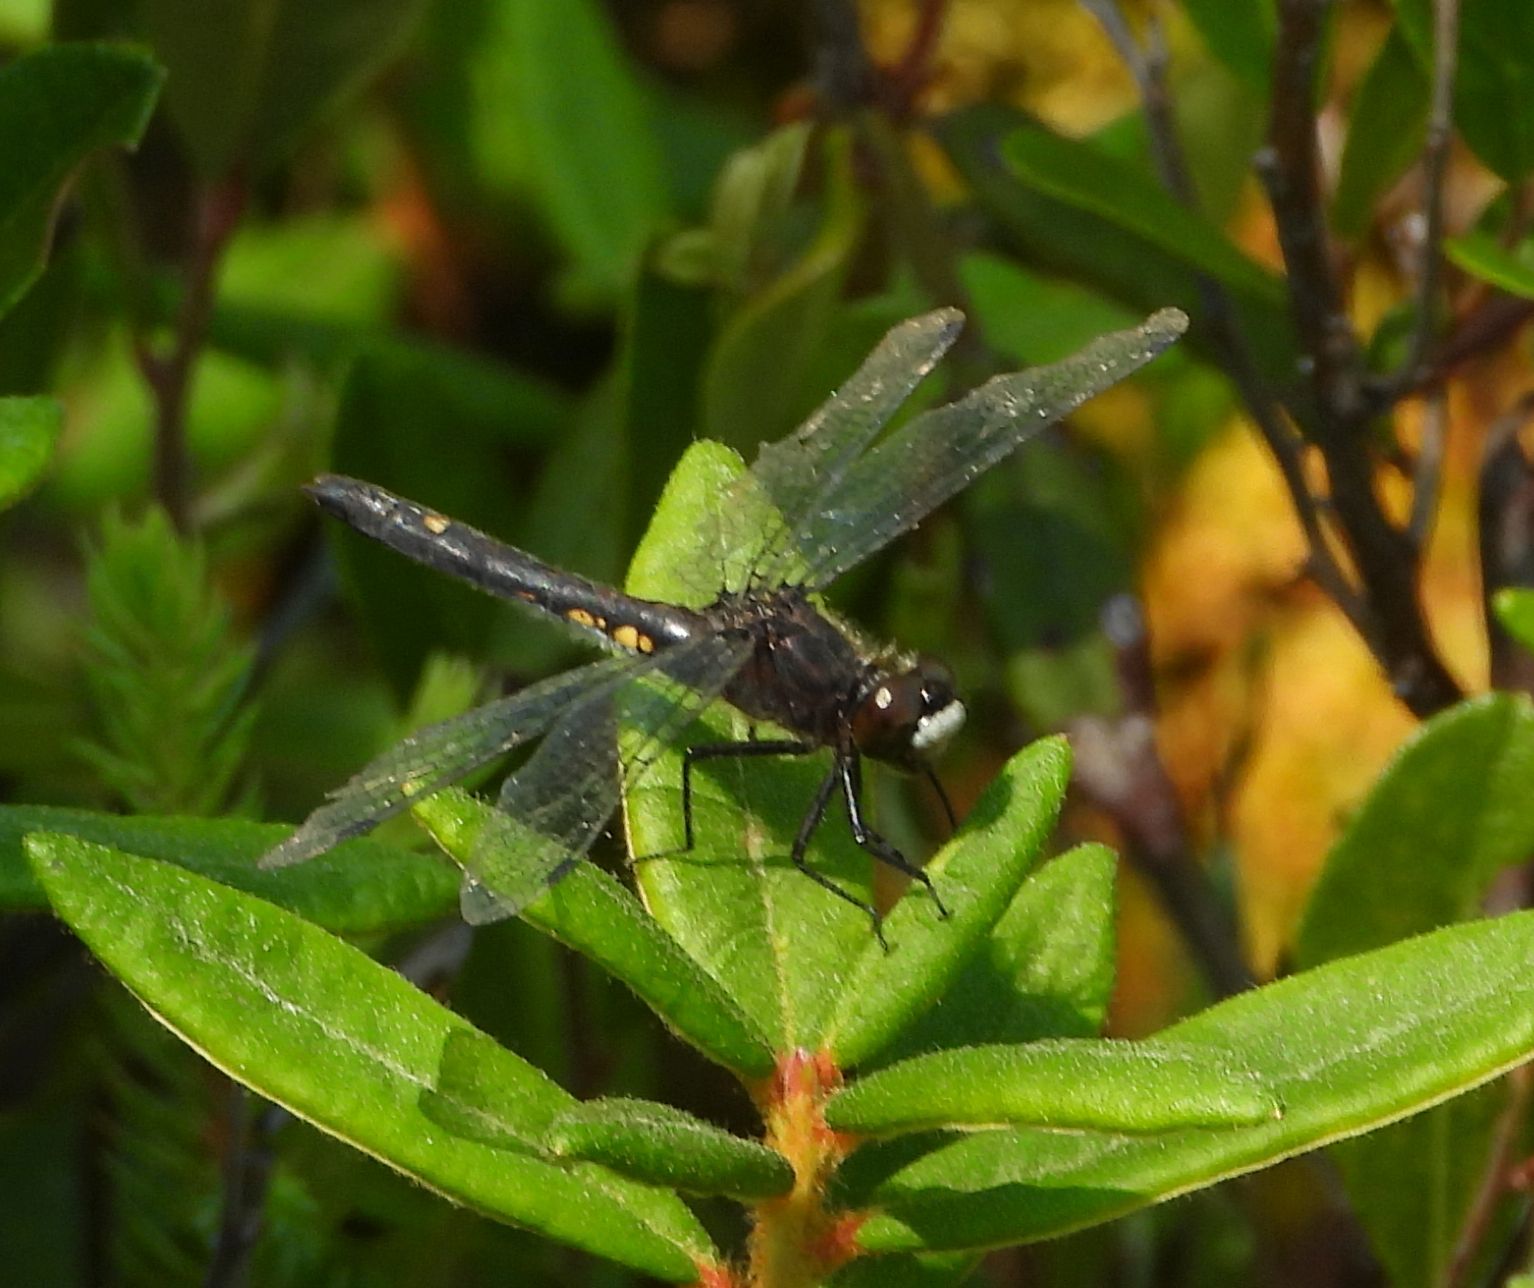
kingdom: Animalia
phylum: Arthropoda
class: Insecta
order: Odonata
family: Libellulidae
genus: Leucorrhinia
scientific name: Leucorrhinia intacta
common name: Dot-tailed whiteface
